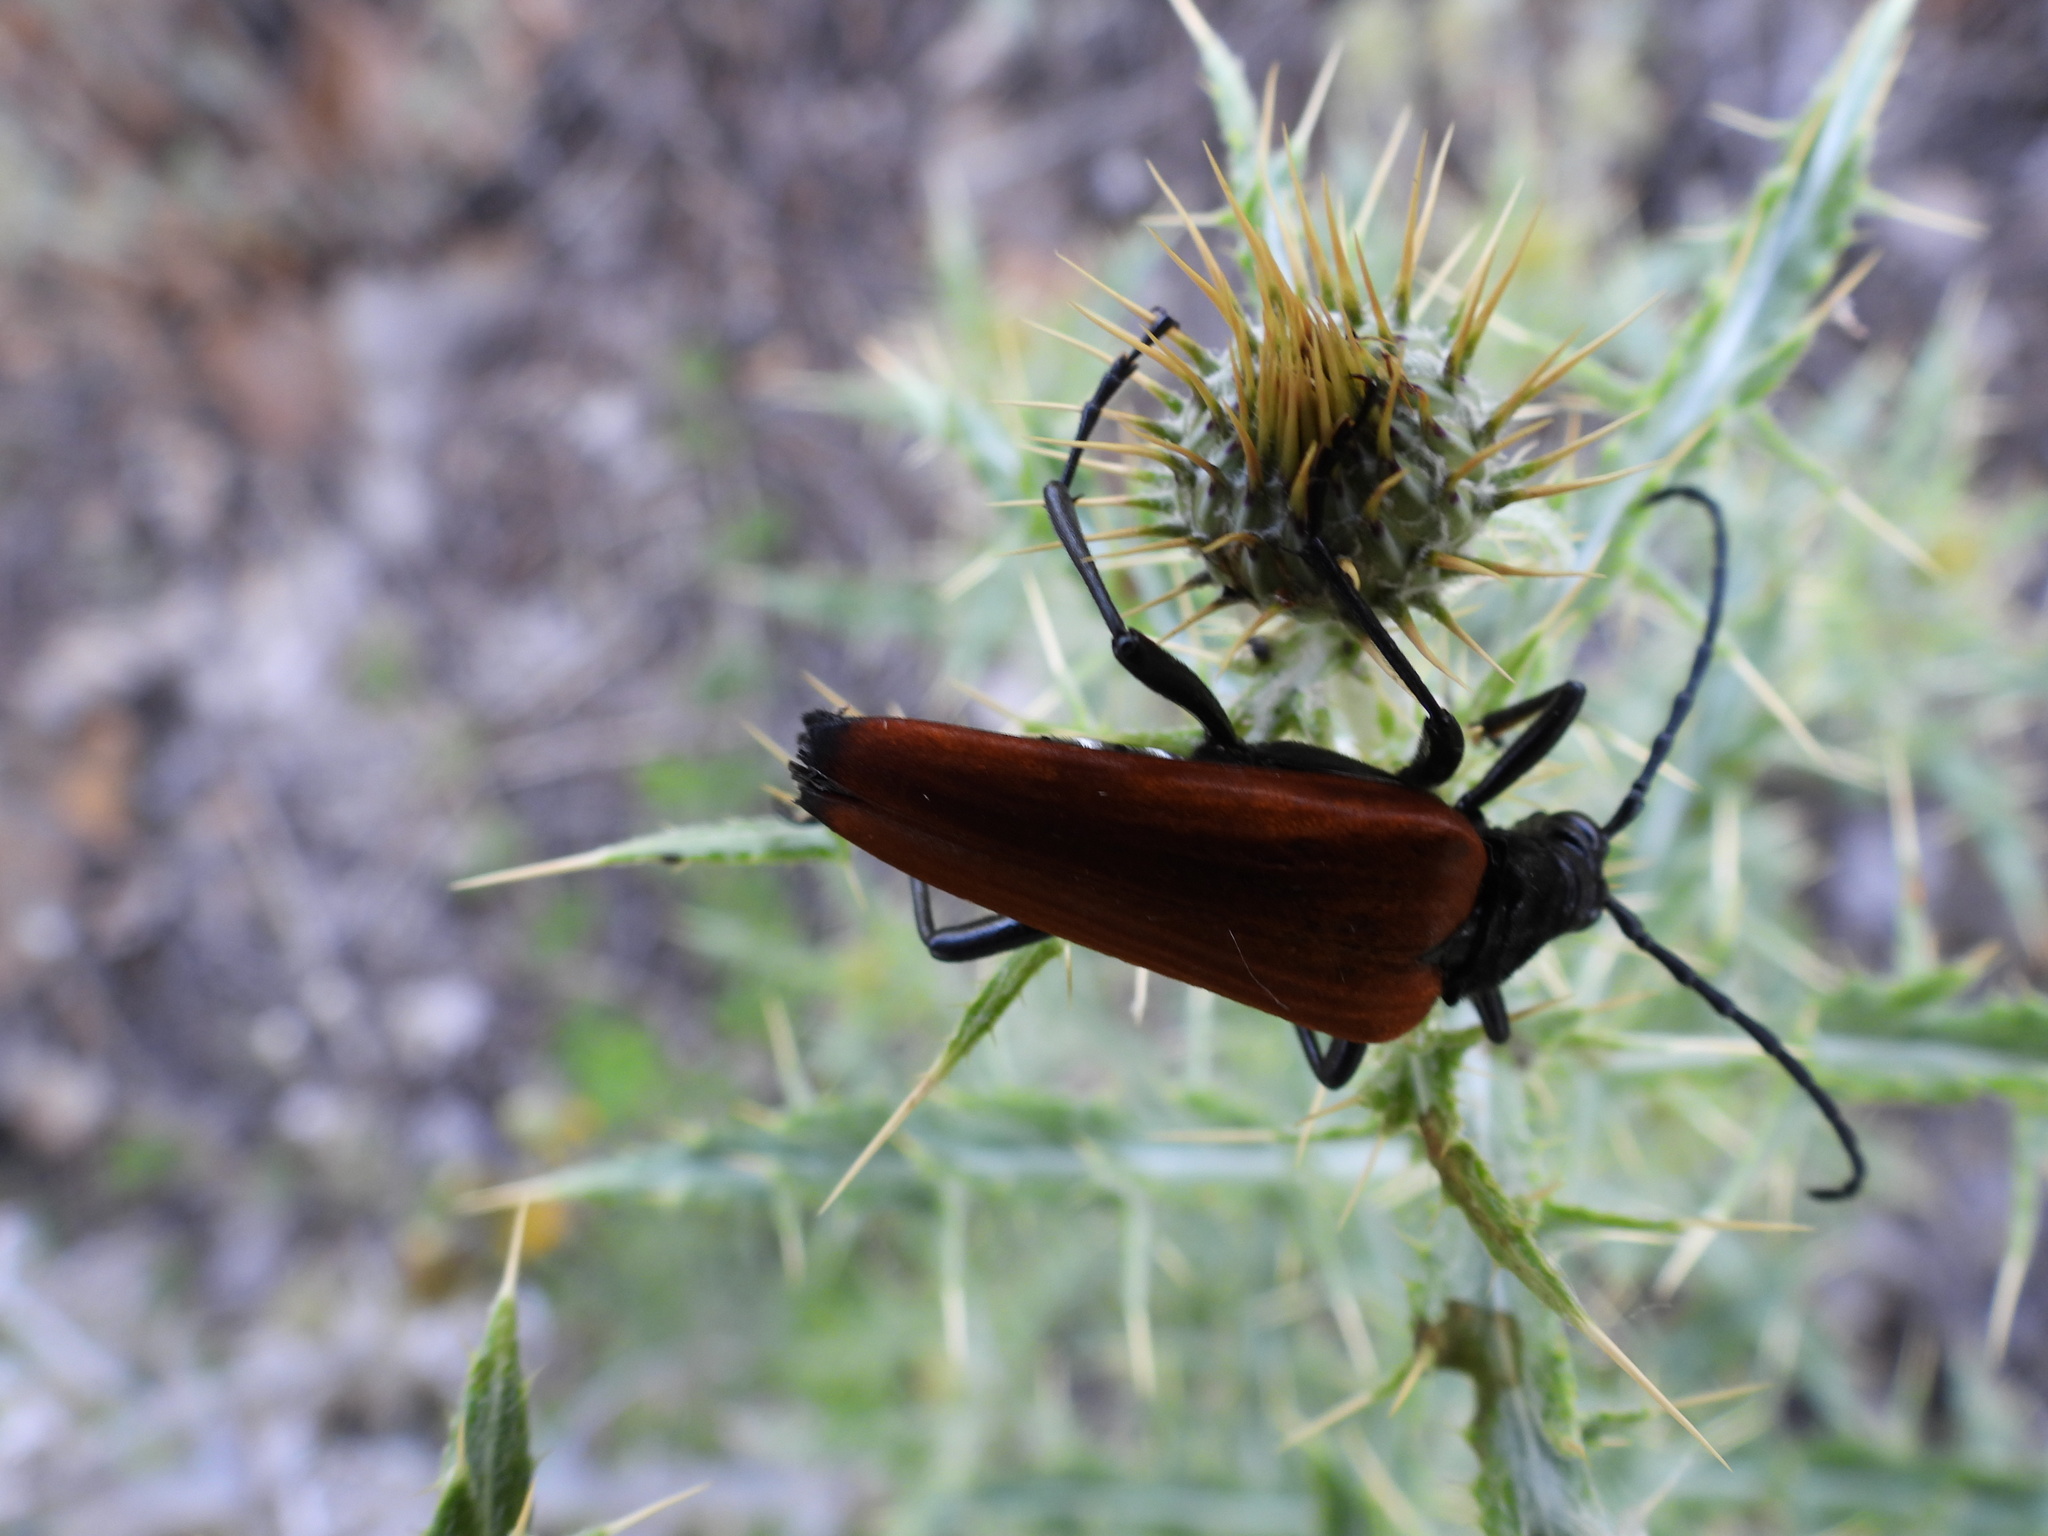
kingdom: Animalia
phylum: Arthropoda
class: Insecta
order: Coleoptera
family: Cerambycidae
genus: Stenelytrana
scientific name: Stenelytrana gigas
